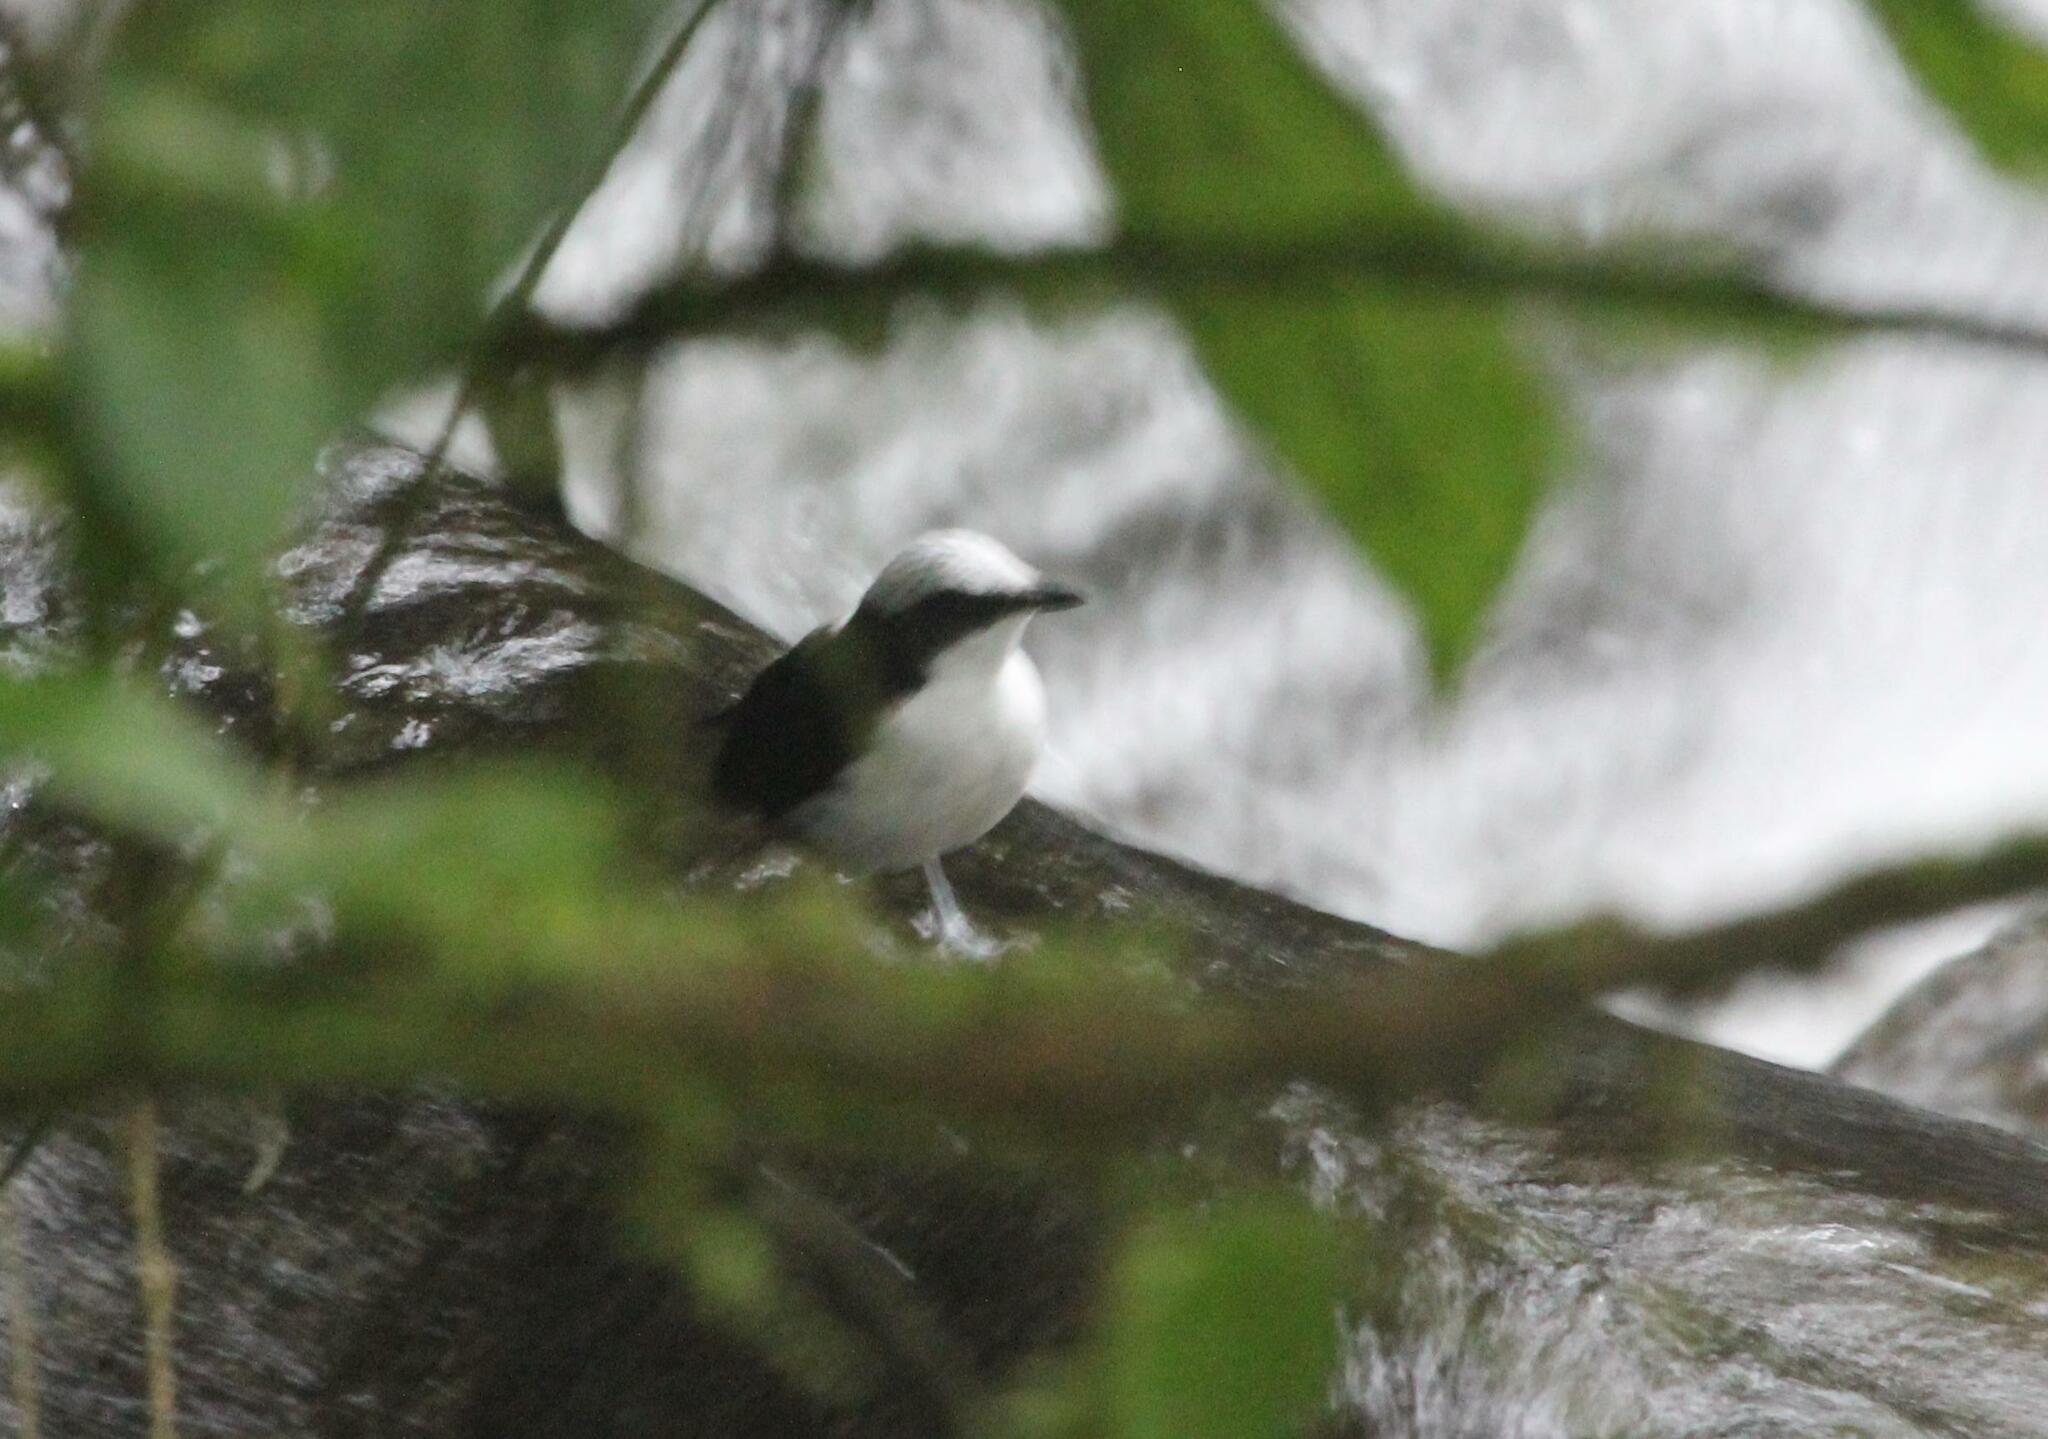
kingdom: Animalia
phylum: Chordata
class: Aves
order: Passeriformes
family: Cinclidae
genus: Cinclus
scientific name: Cinclus leucocephalus
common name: White-capped dipper
